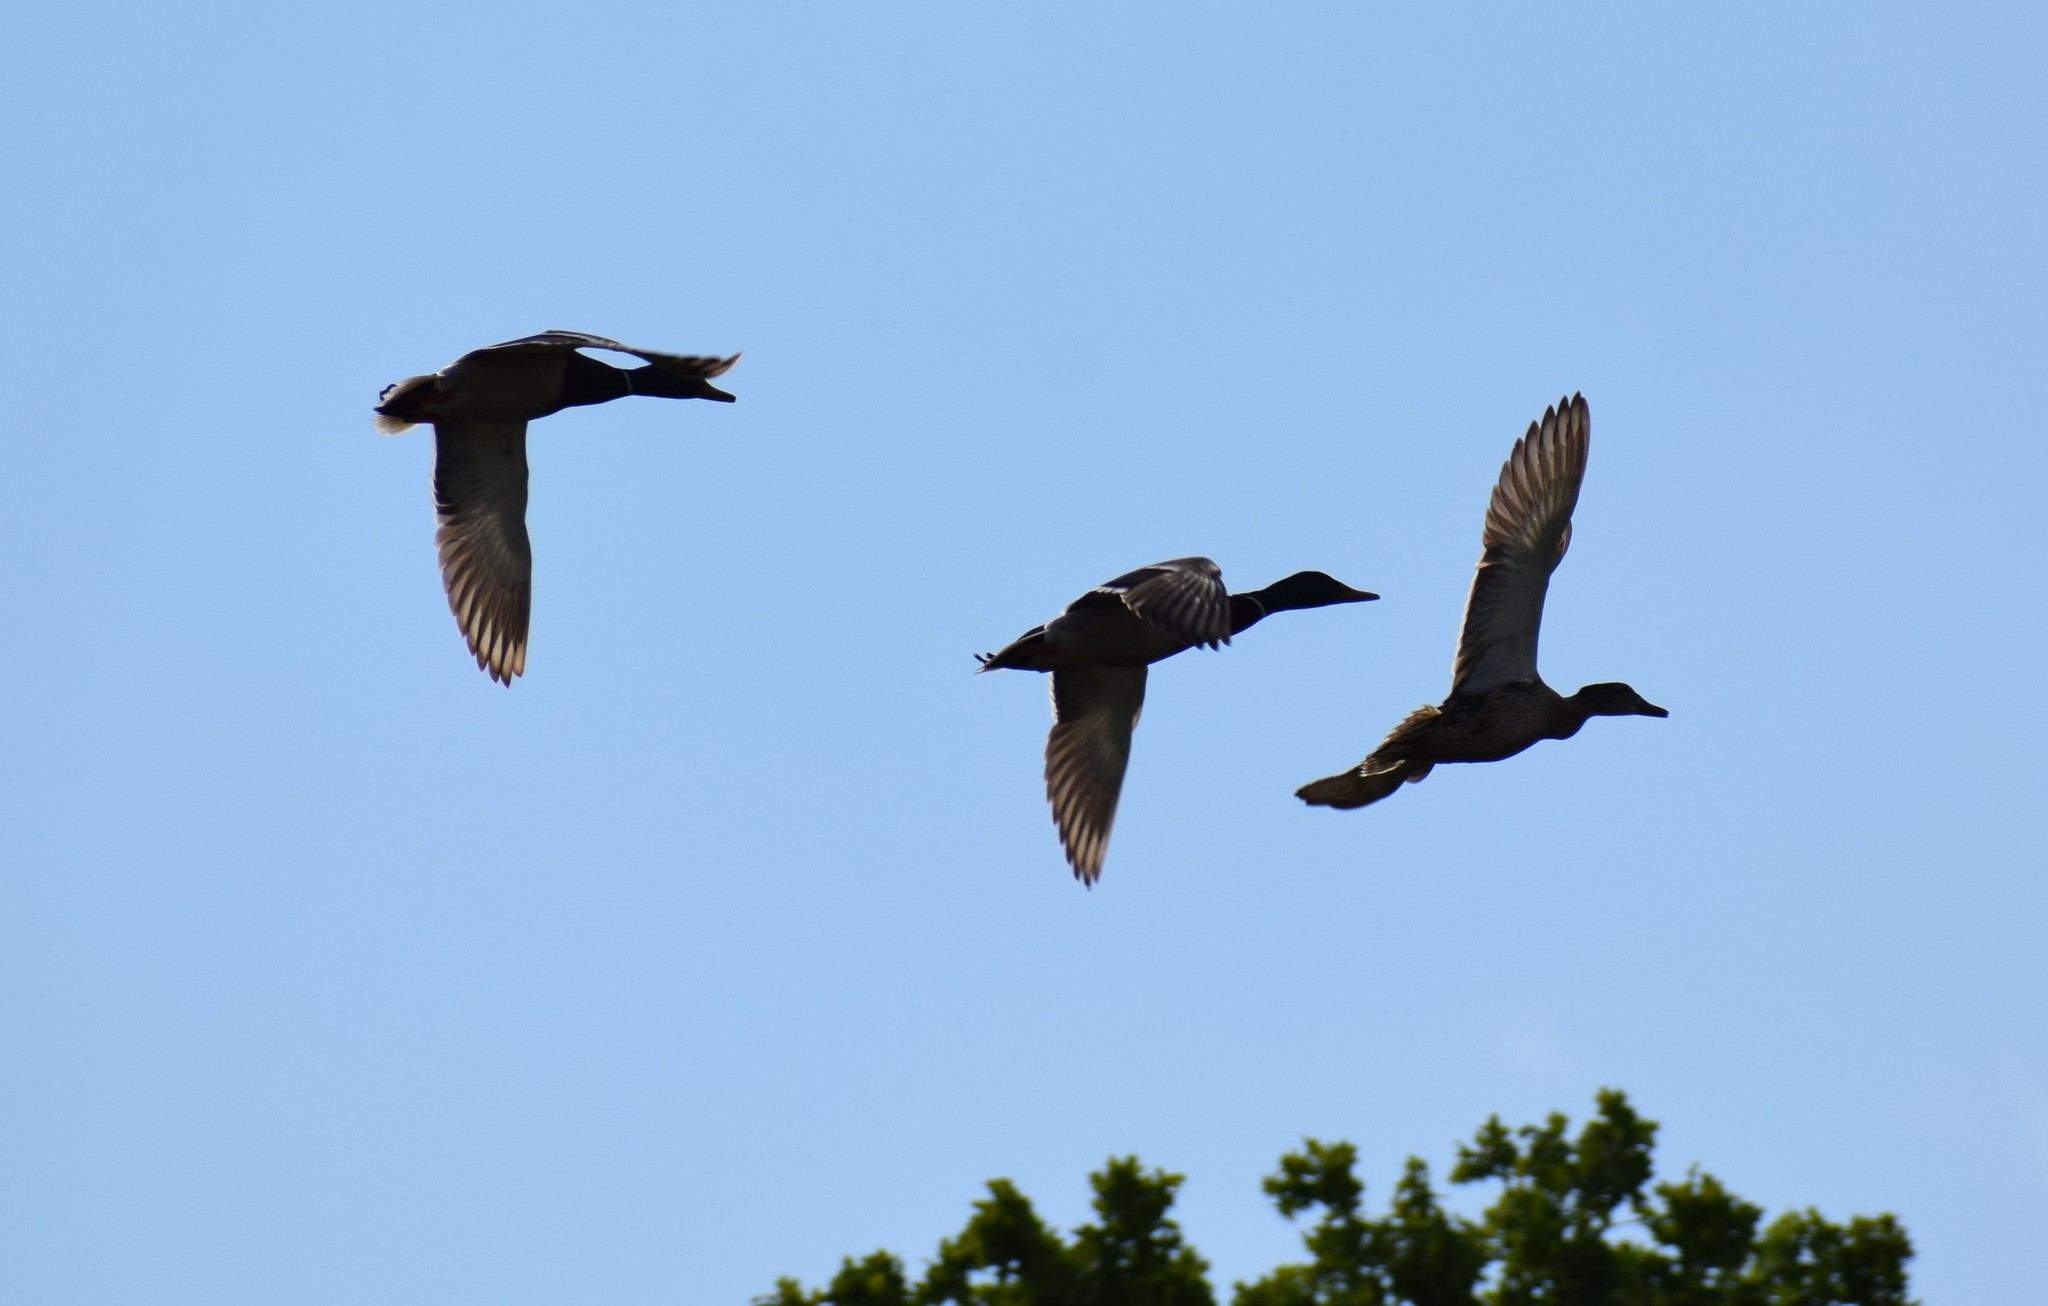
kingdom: Animalia
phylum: Chordata
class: Aves
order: Anseriformes
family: Anatidae
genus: Anas
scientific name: Anas platyrhynchos
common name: Mallard
